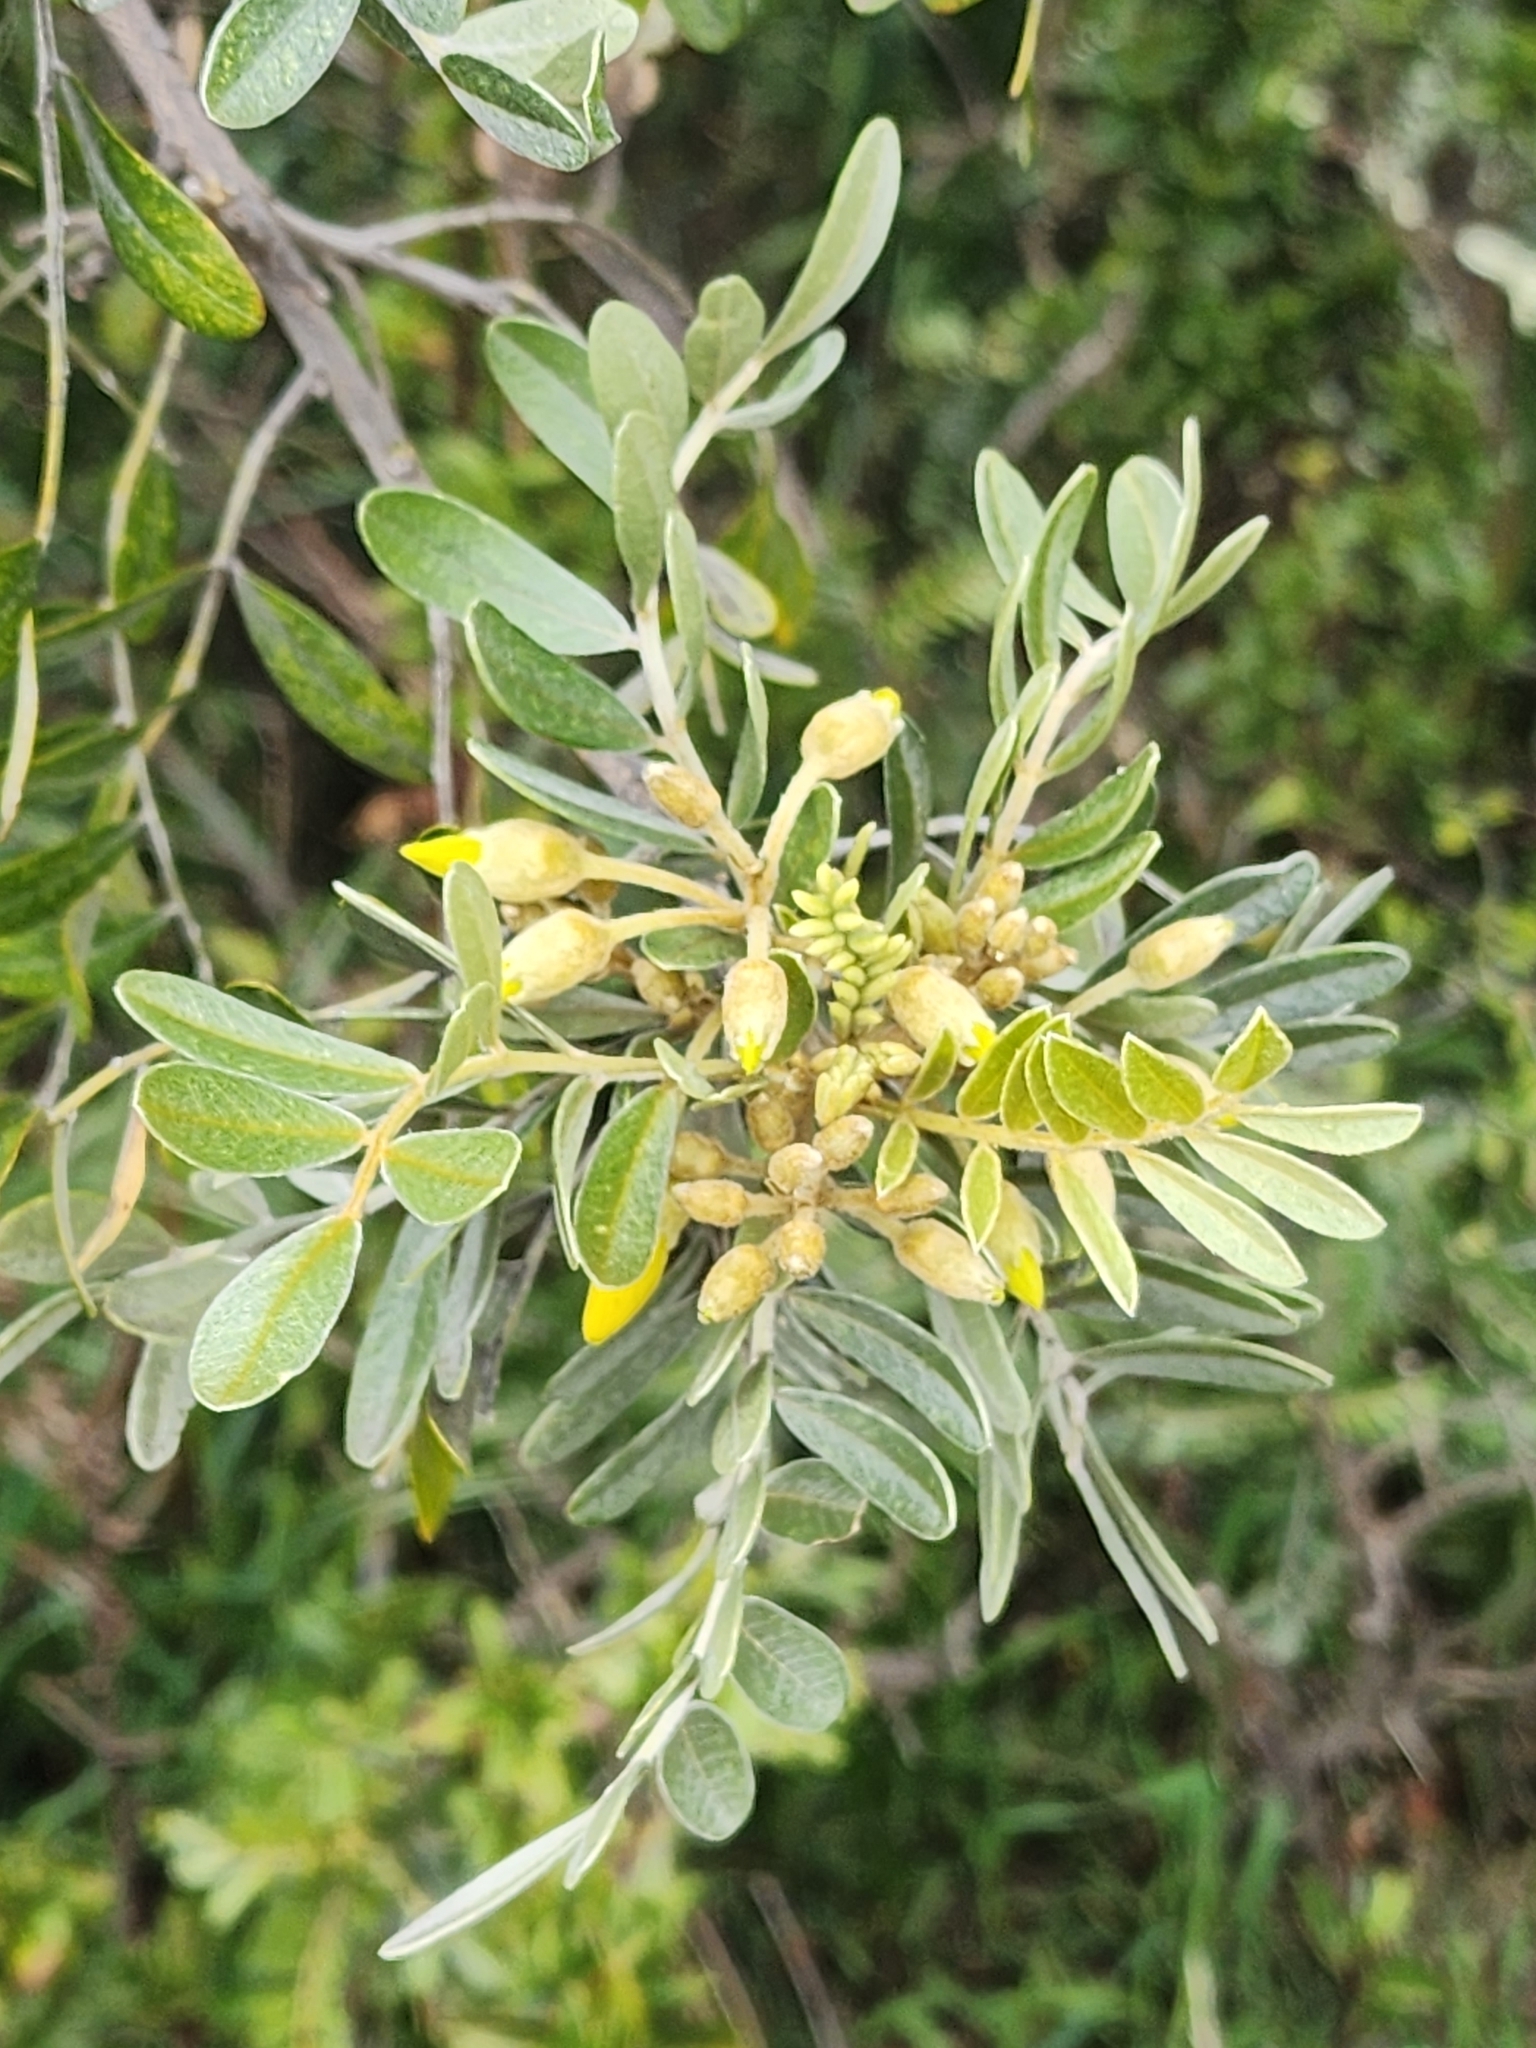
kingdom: Plantae
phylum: Tracheophyta
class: Magnoliopsida
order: Fabales
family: Fabaceae
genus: Sophora
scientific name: Sophora chrysophylla
